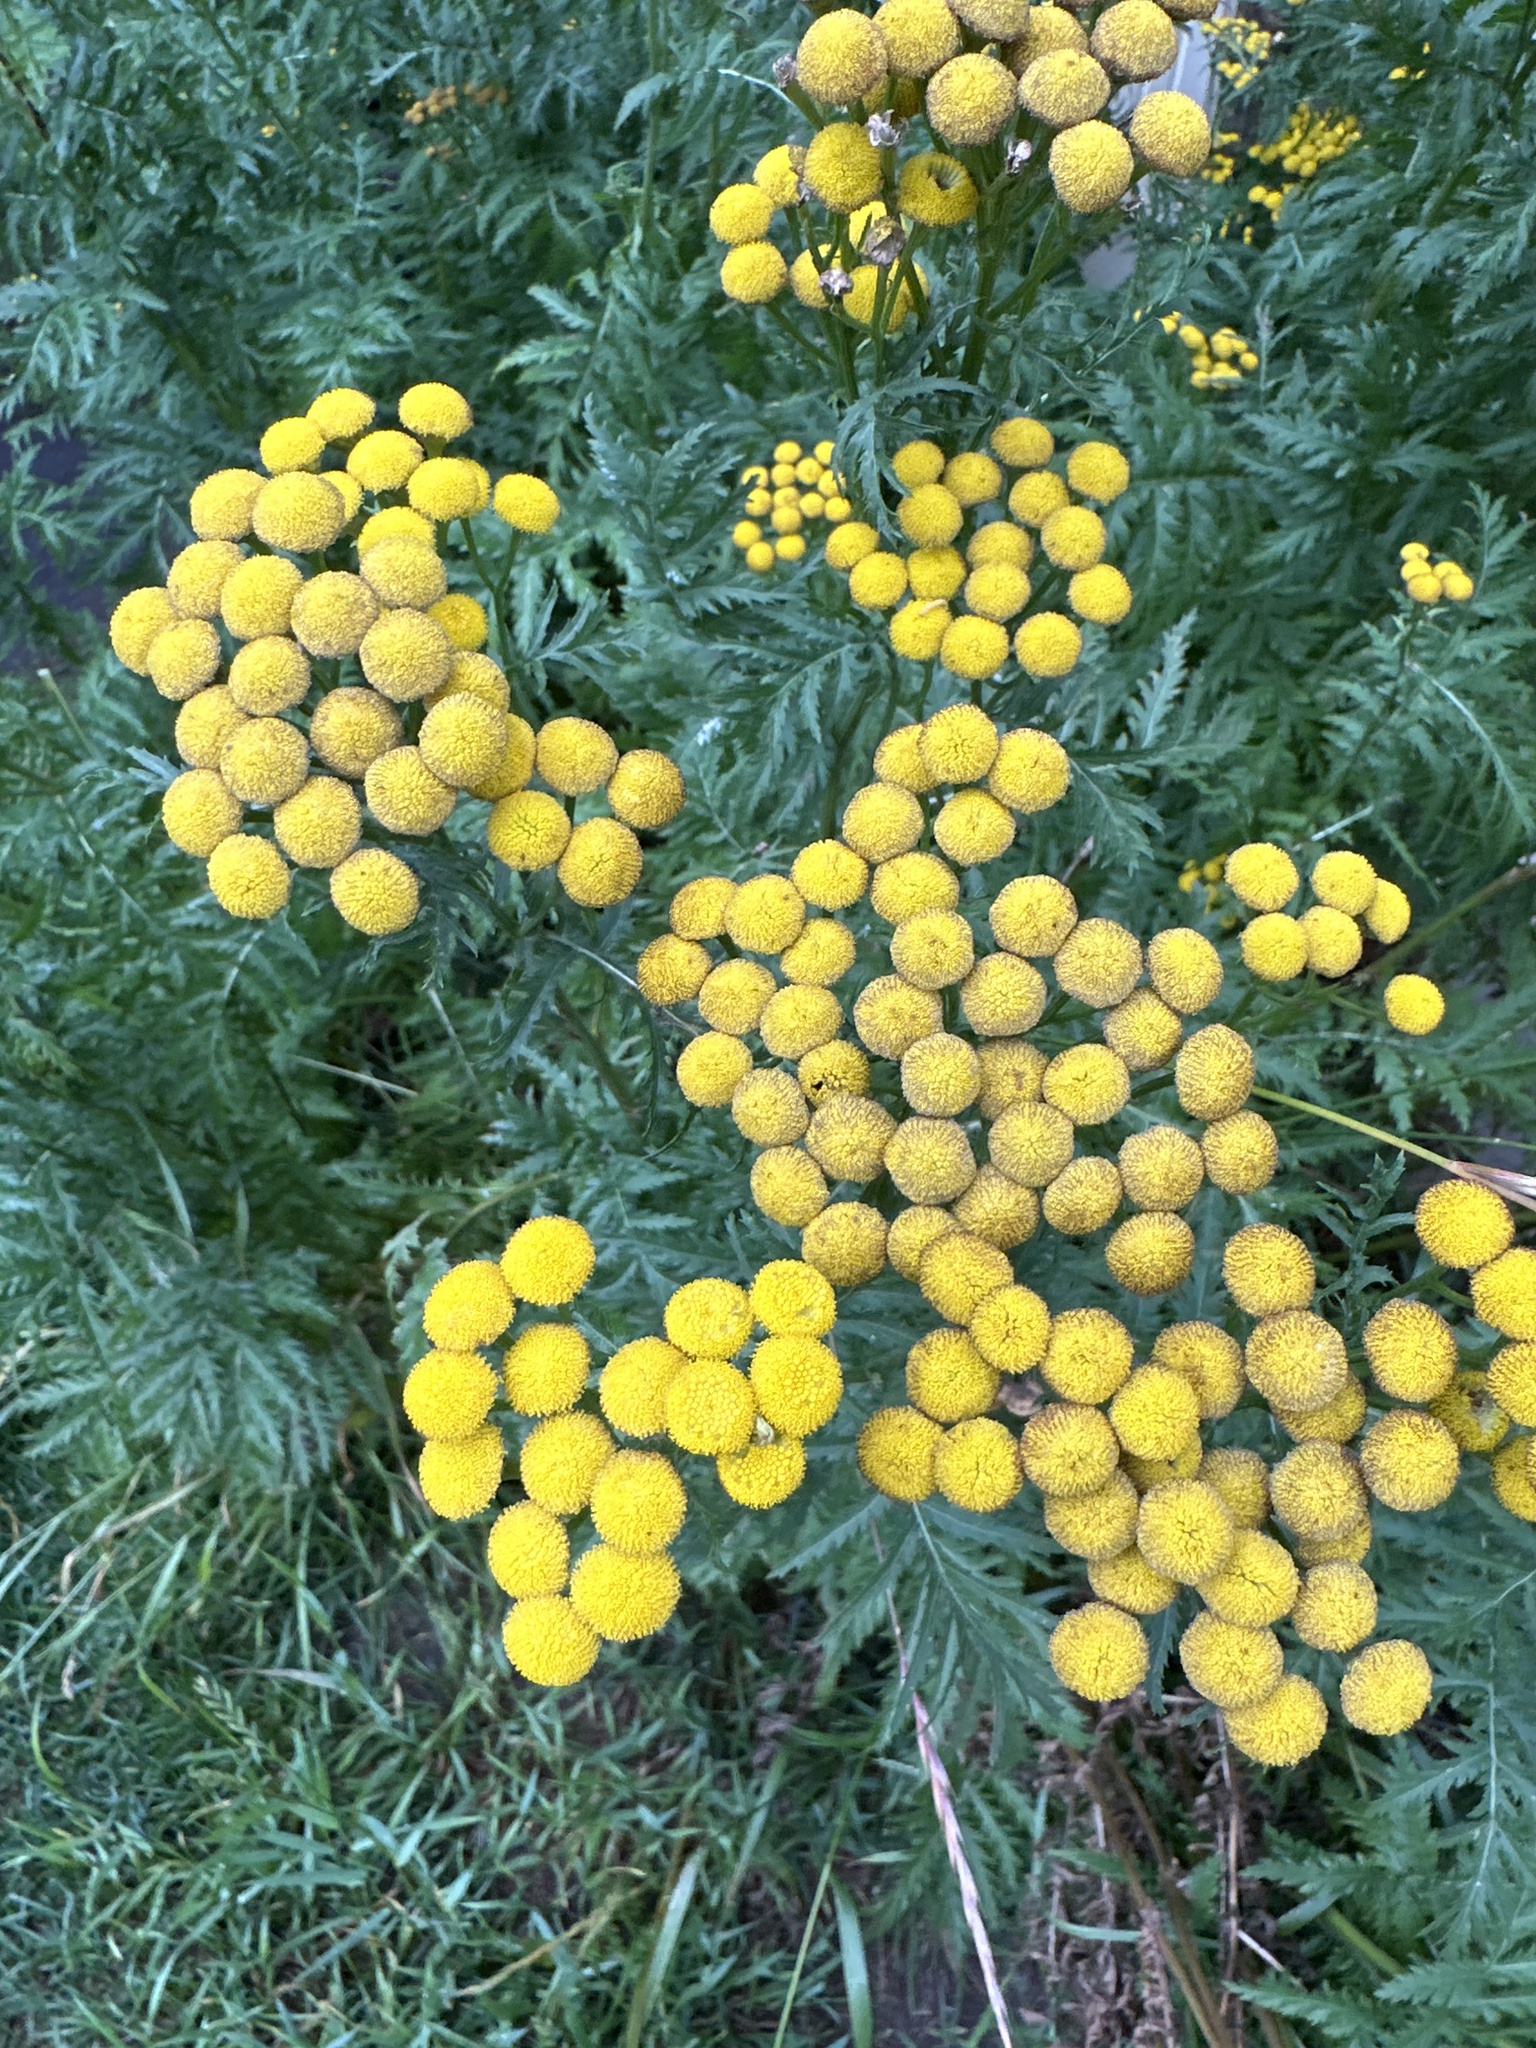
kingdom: Plantae
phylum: Tracheophyta
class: Magnoliopsida
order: Asterales
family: Asteraceae
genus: Tanacetum
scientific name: Tanacetum vulgare
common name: Common tansy
